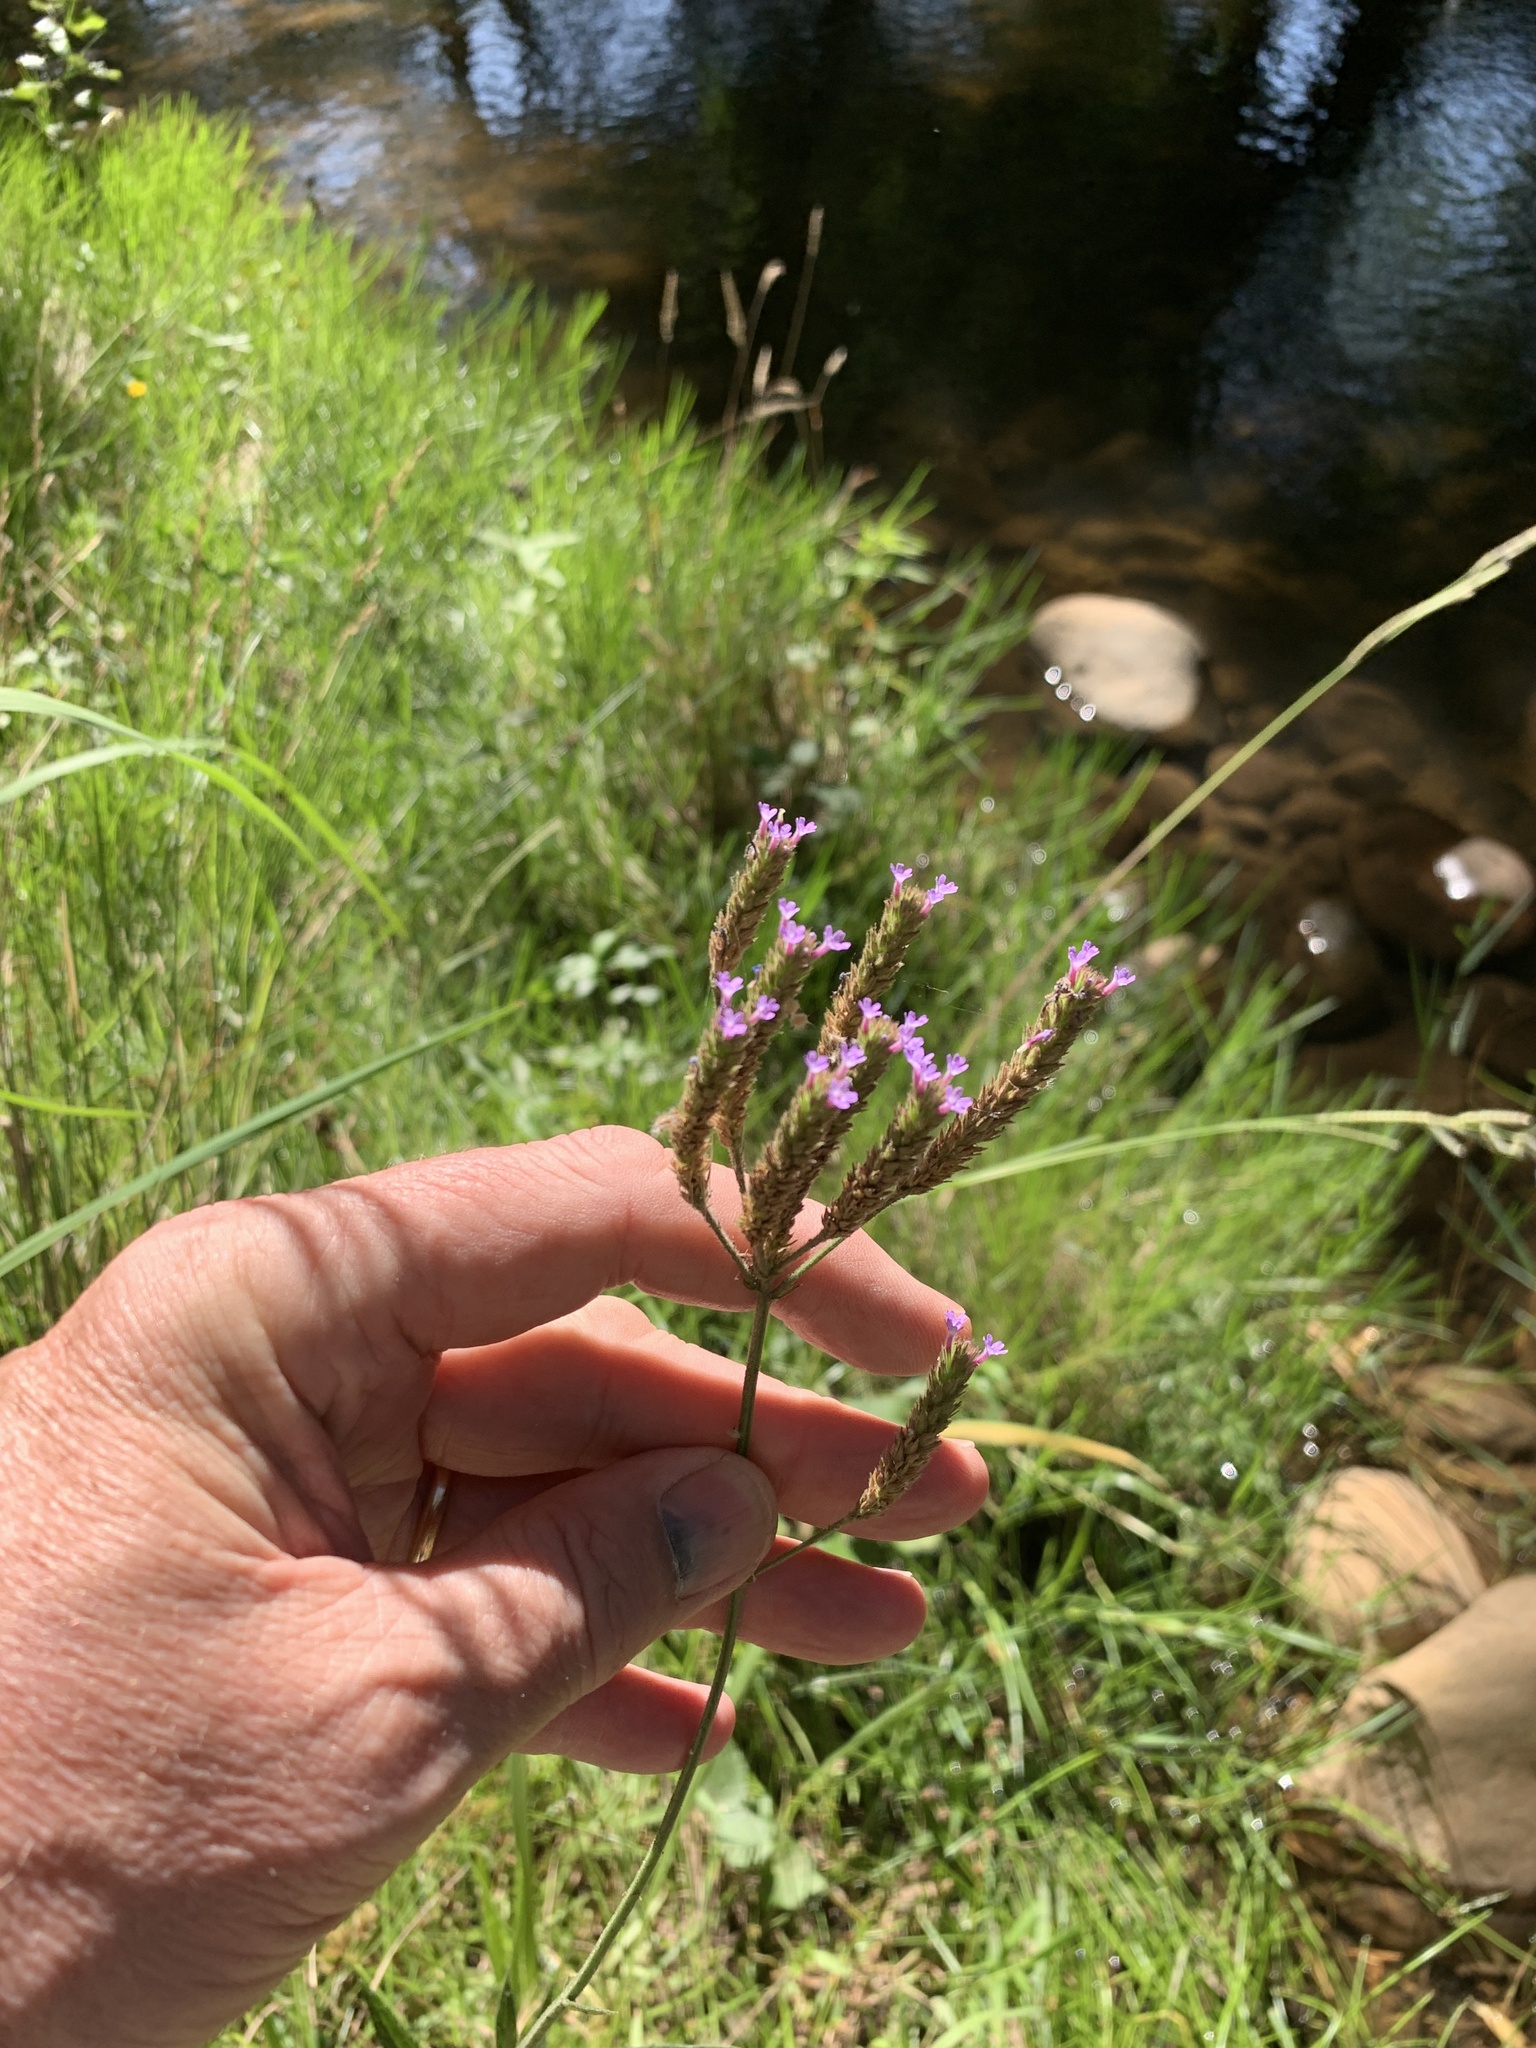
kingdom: Plantae
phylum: Tracheophyta
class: Magnoliopsida
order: Lamiales
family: Verbenaceae
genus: Verbena
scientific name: Verbena bonariensis
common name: Purpletop vervain
